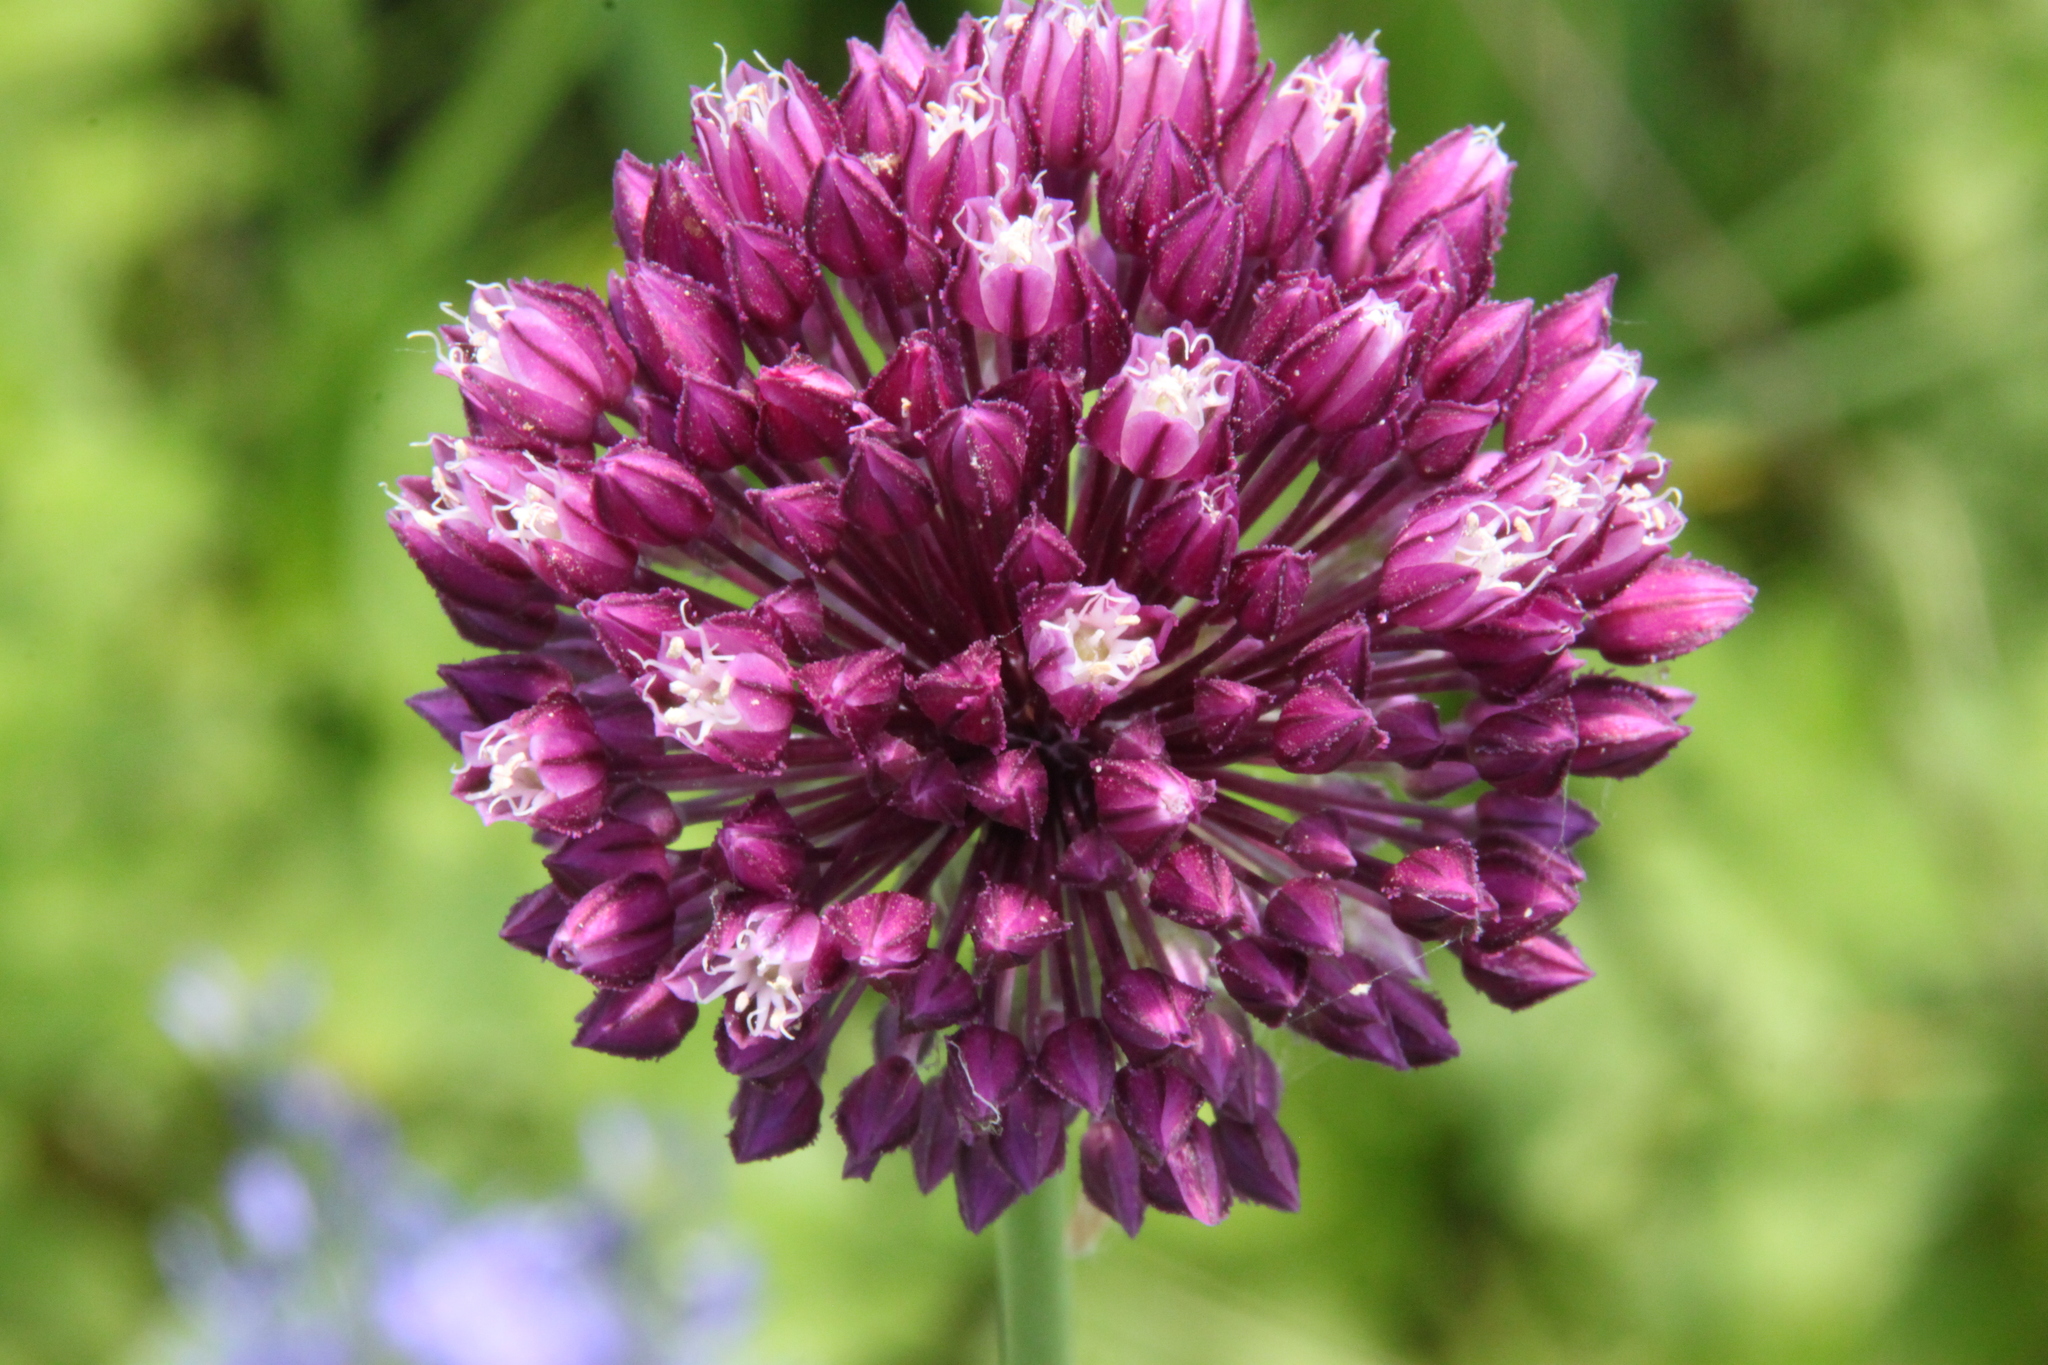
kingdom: Plantae
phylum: Tracheophyta
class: Liliopsida
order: Asparagales
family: Amaryllidaceae
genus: Allium
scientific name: Allium rotundum
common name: Sand leek
